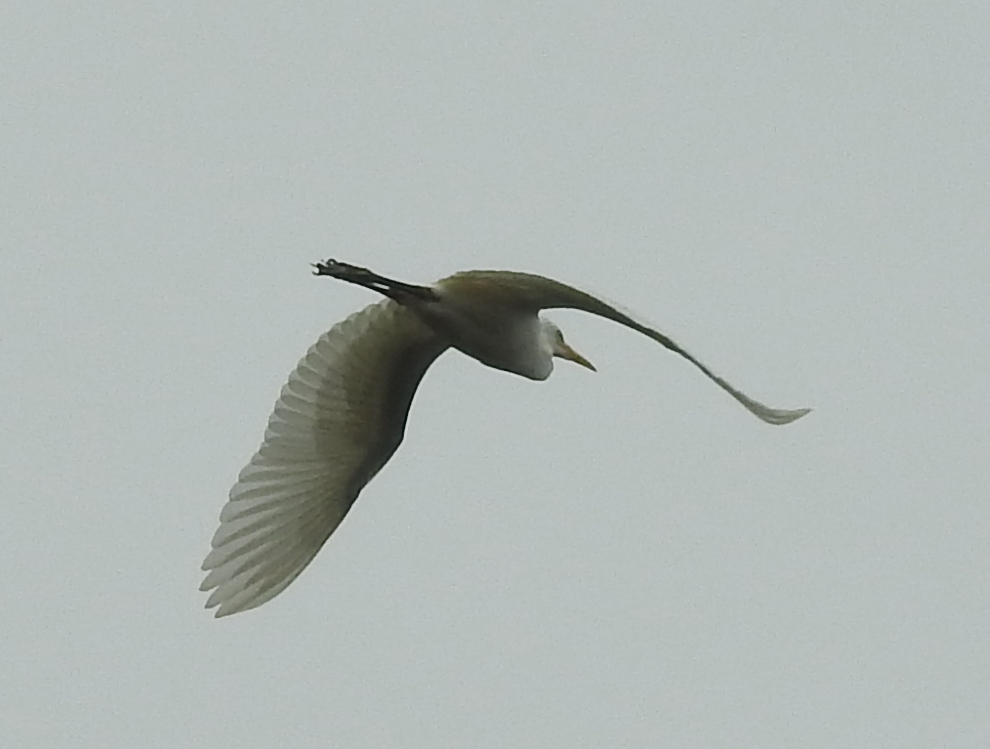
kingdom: Animalia
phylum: Chordata
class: Aves
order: Pelecaniformes
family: Ardeidae
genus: Bubulcus
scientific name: Bubulcus coromandus
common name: Eastern cattle egret
